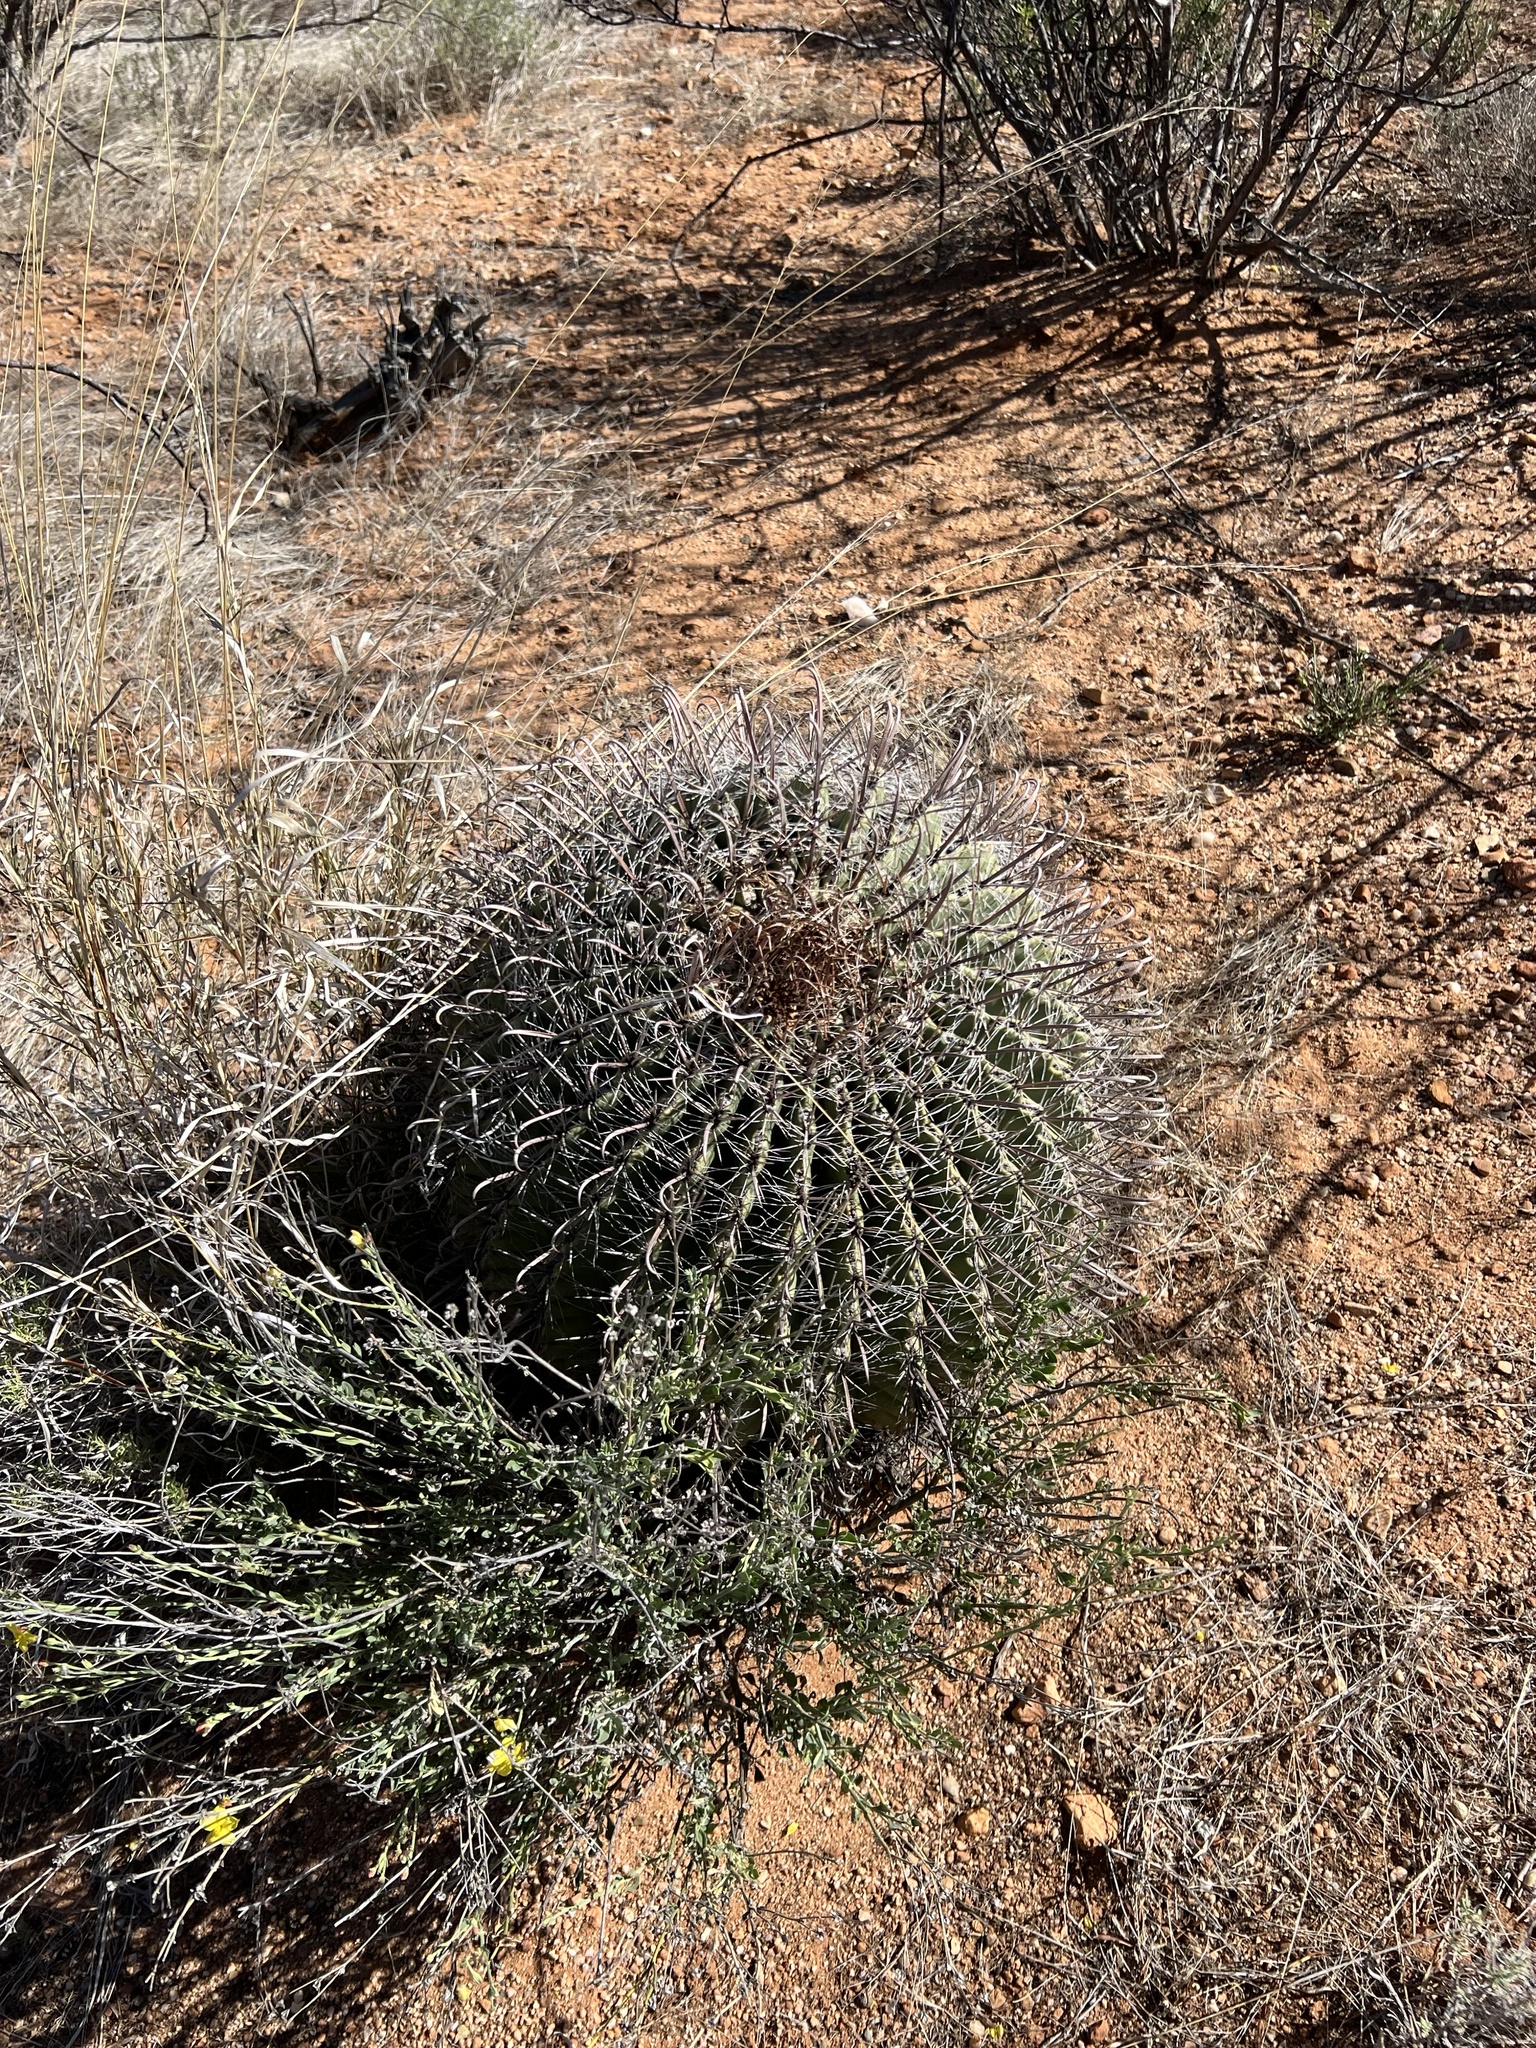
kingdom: Plantae
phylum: Tracheophyta
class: Magnoliopsida
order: Caryophyllales
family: Cactaceae
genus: Ferocactus
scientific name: Ferocactus wislizeni
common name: Candy barrel cactus
